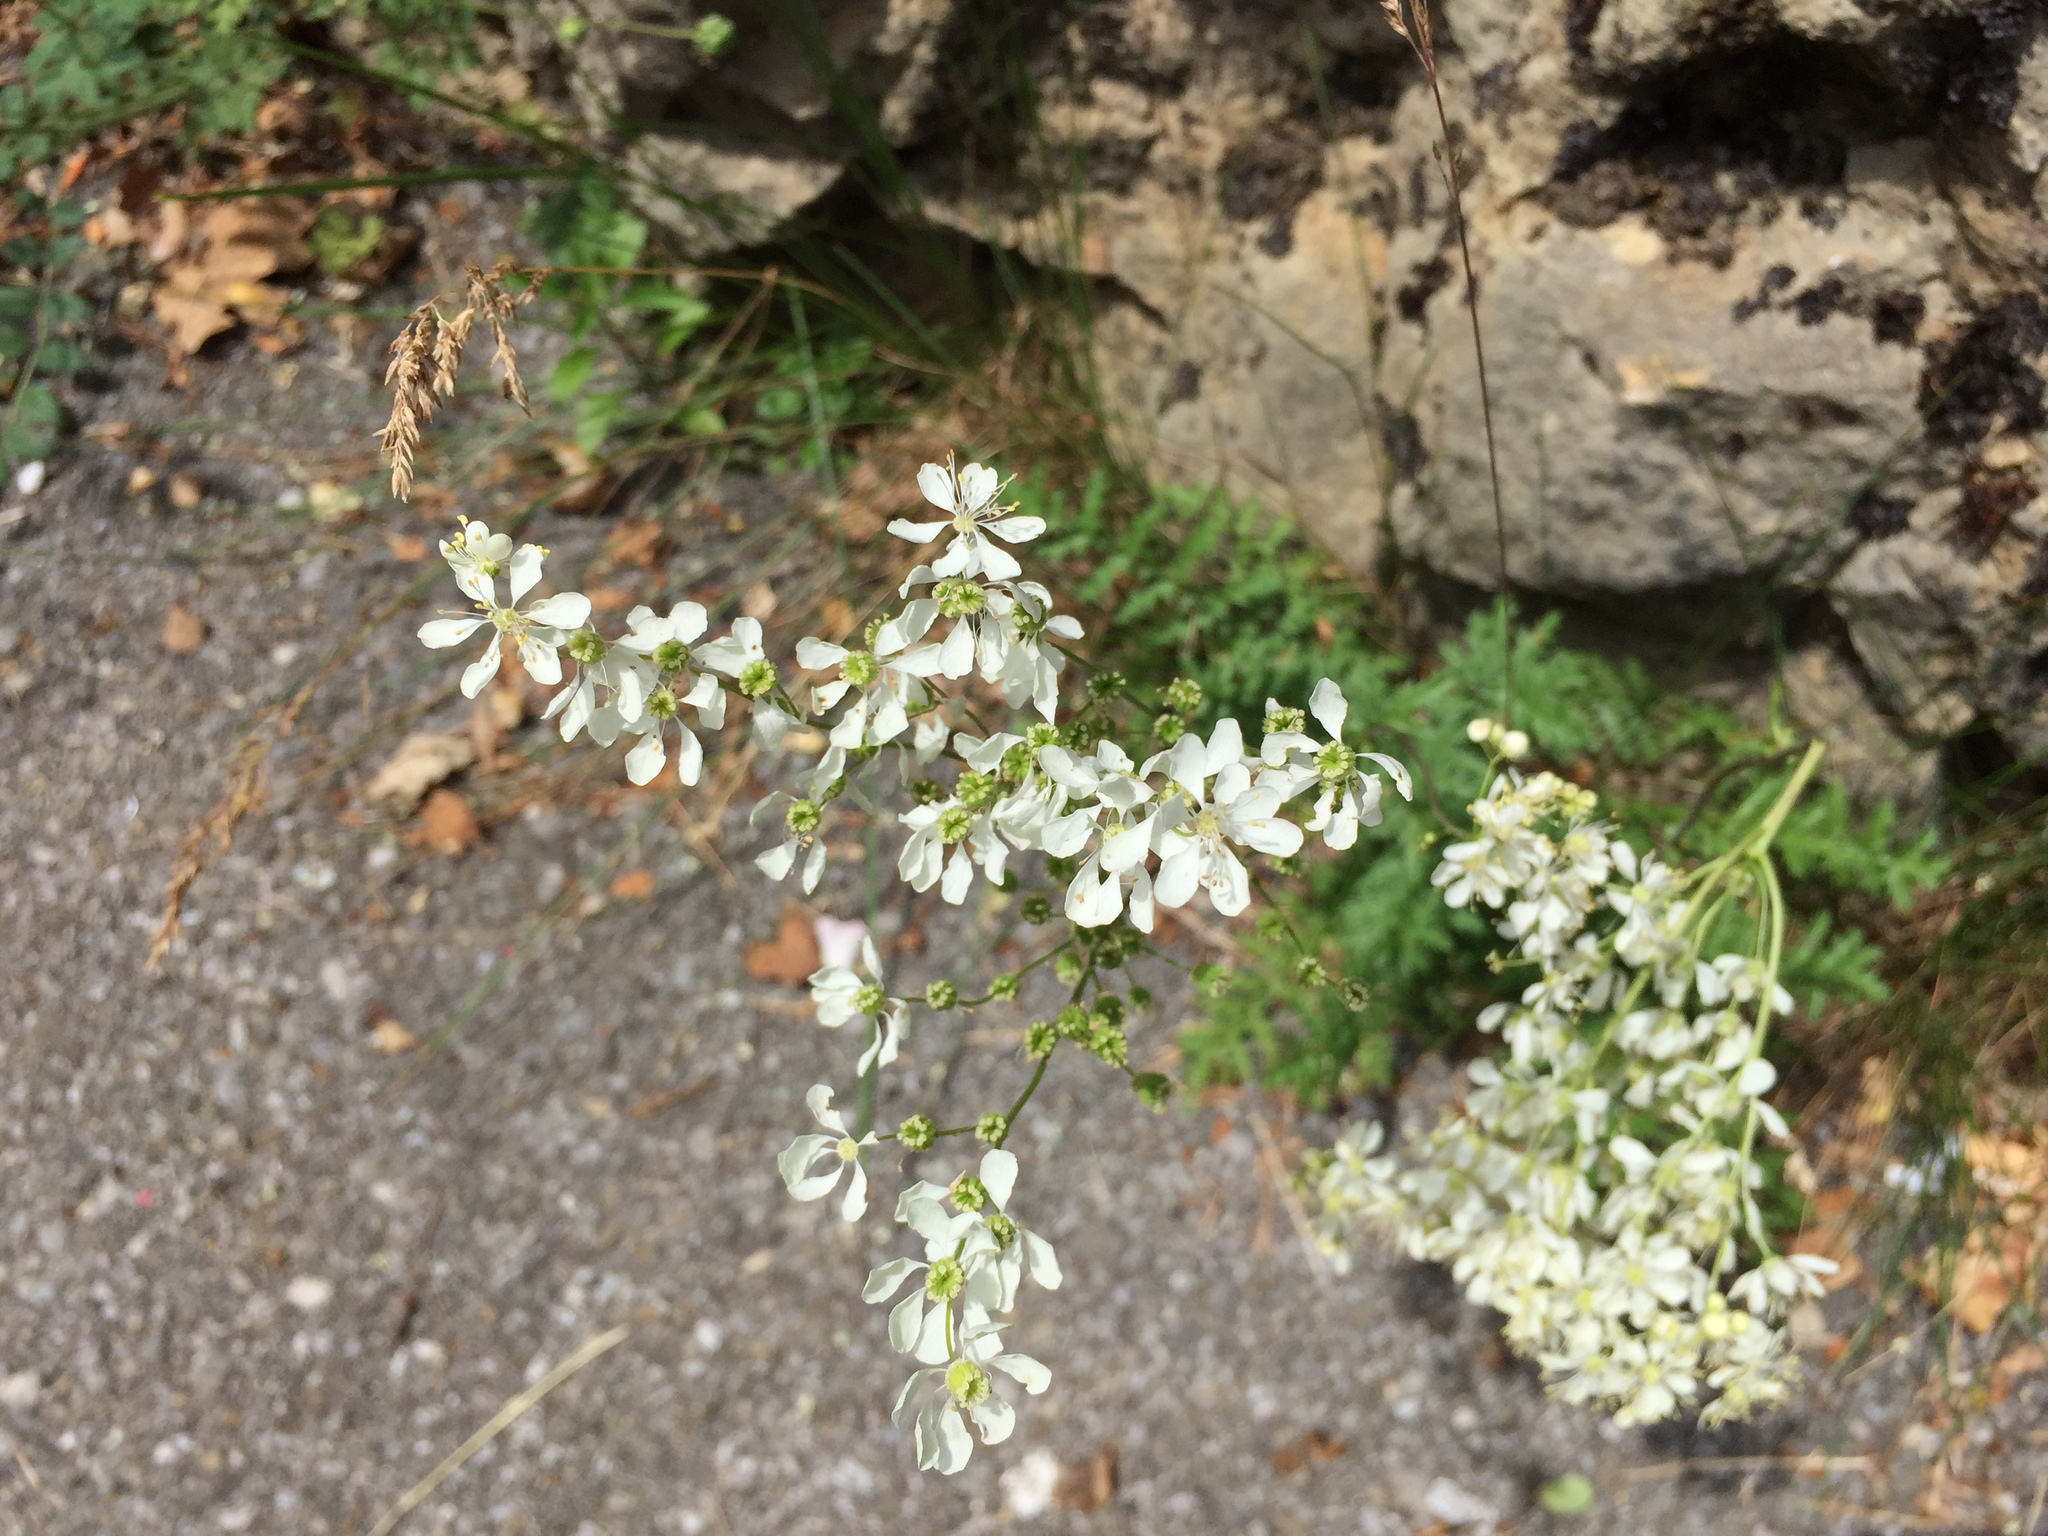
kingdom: Plantae
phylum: Tracheophyta
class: Magnoliopsida
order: Rosales
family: Rosaceae
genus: Filipendula
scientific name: Filipendula vulgaris
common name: Dropwort
